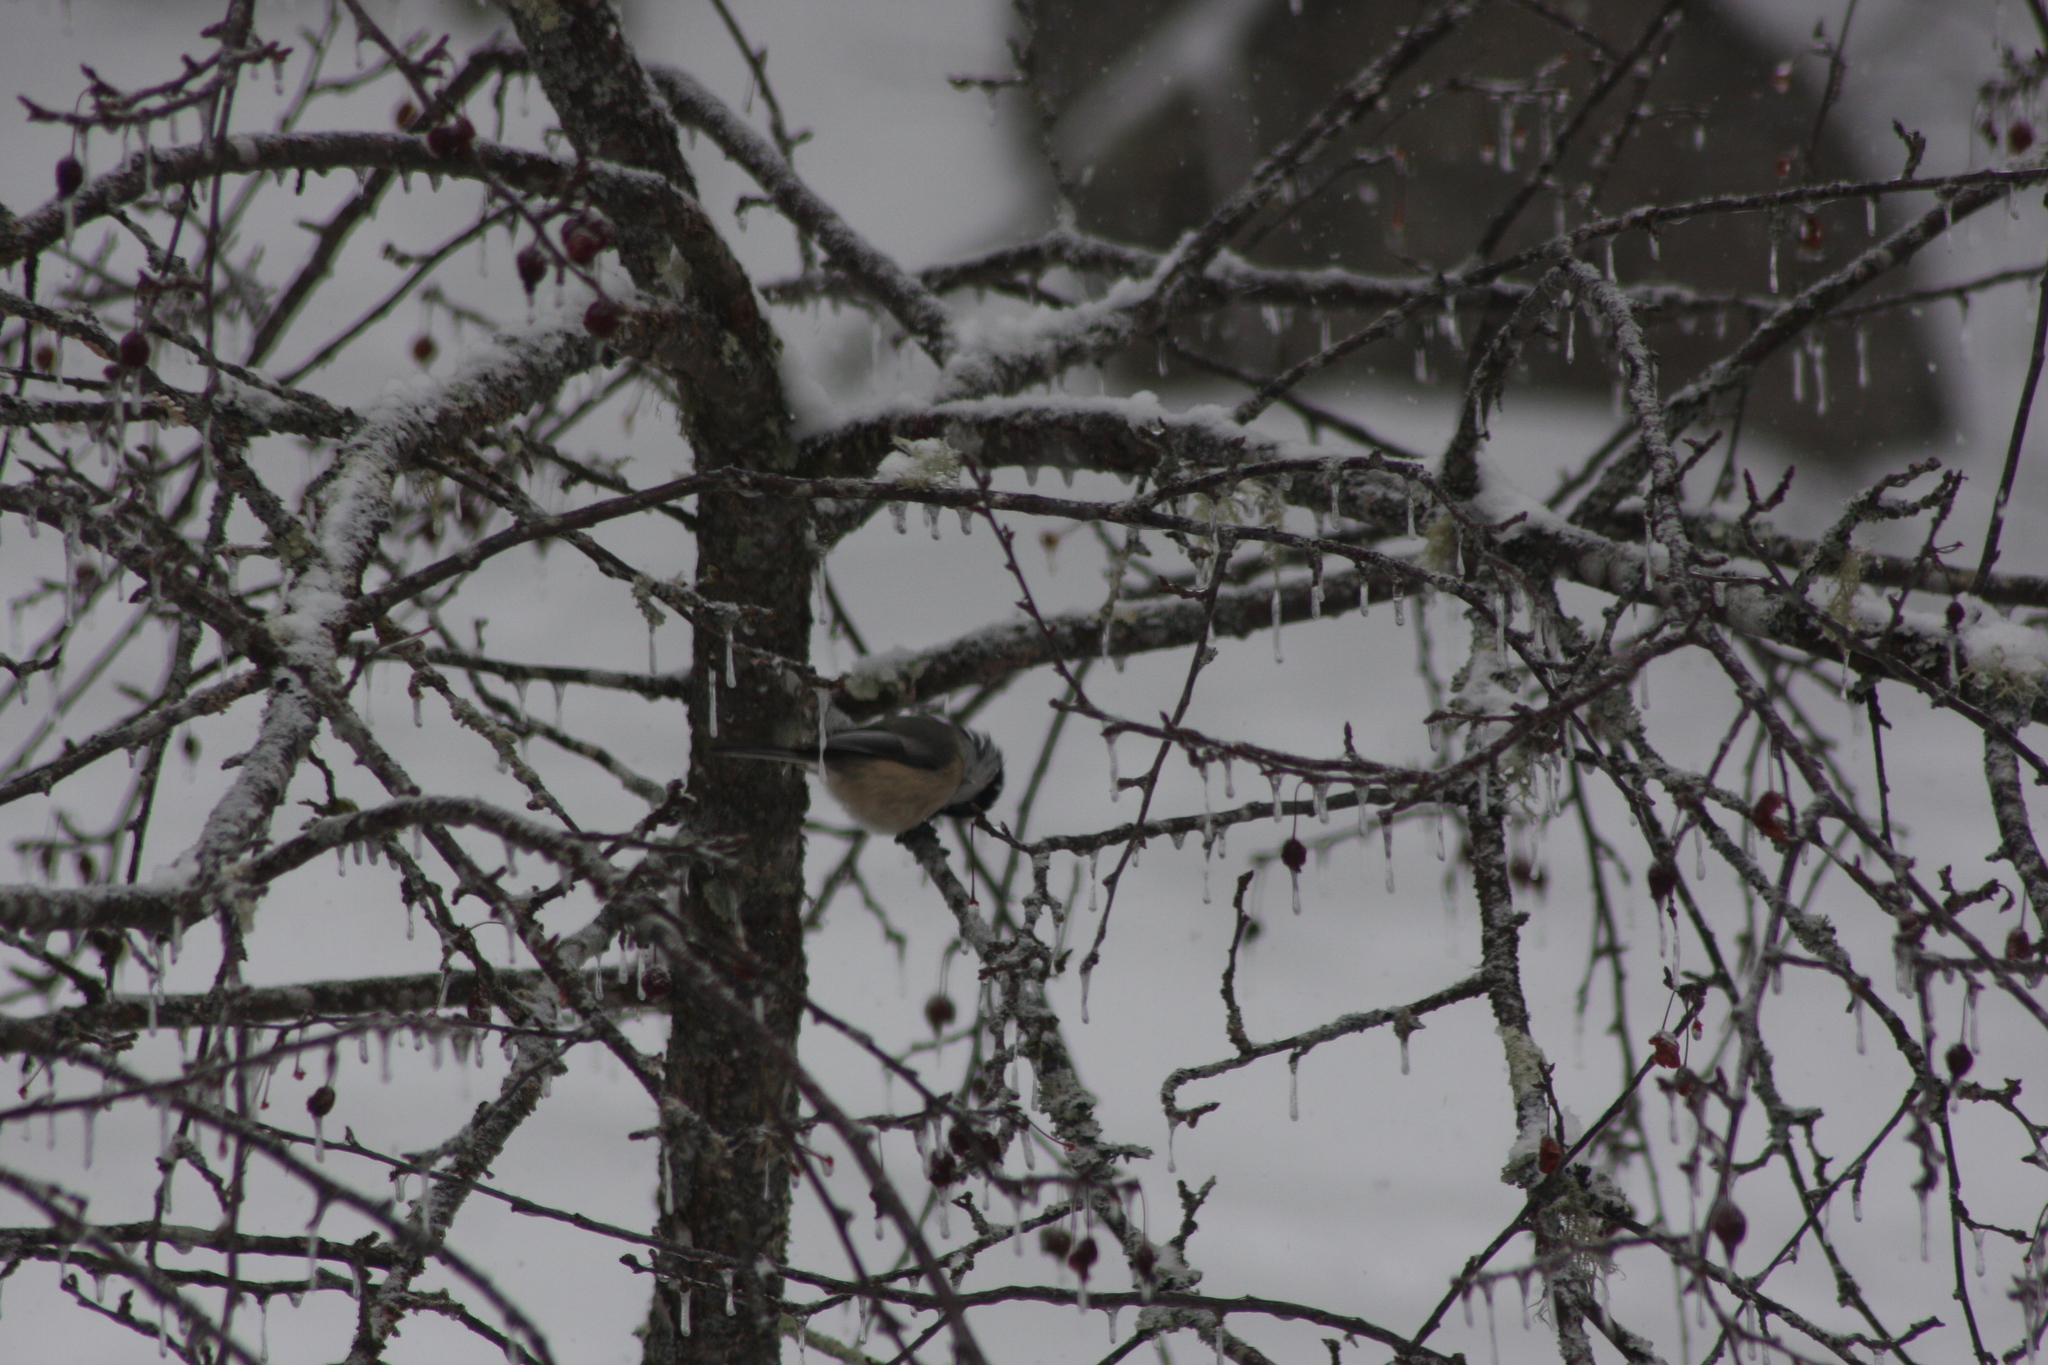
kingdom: Animalia
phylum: Chordata
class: Aves
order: Passeriformes
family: Paridae
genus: Poecile
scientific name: Poecile atricapillus
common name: Black-capped chickadee
